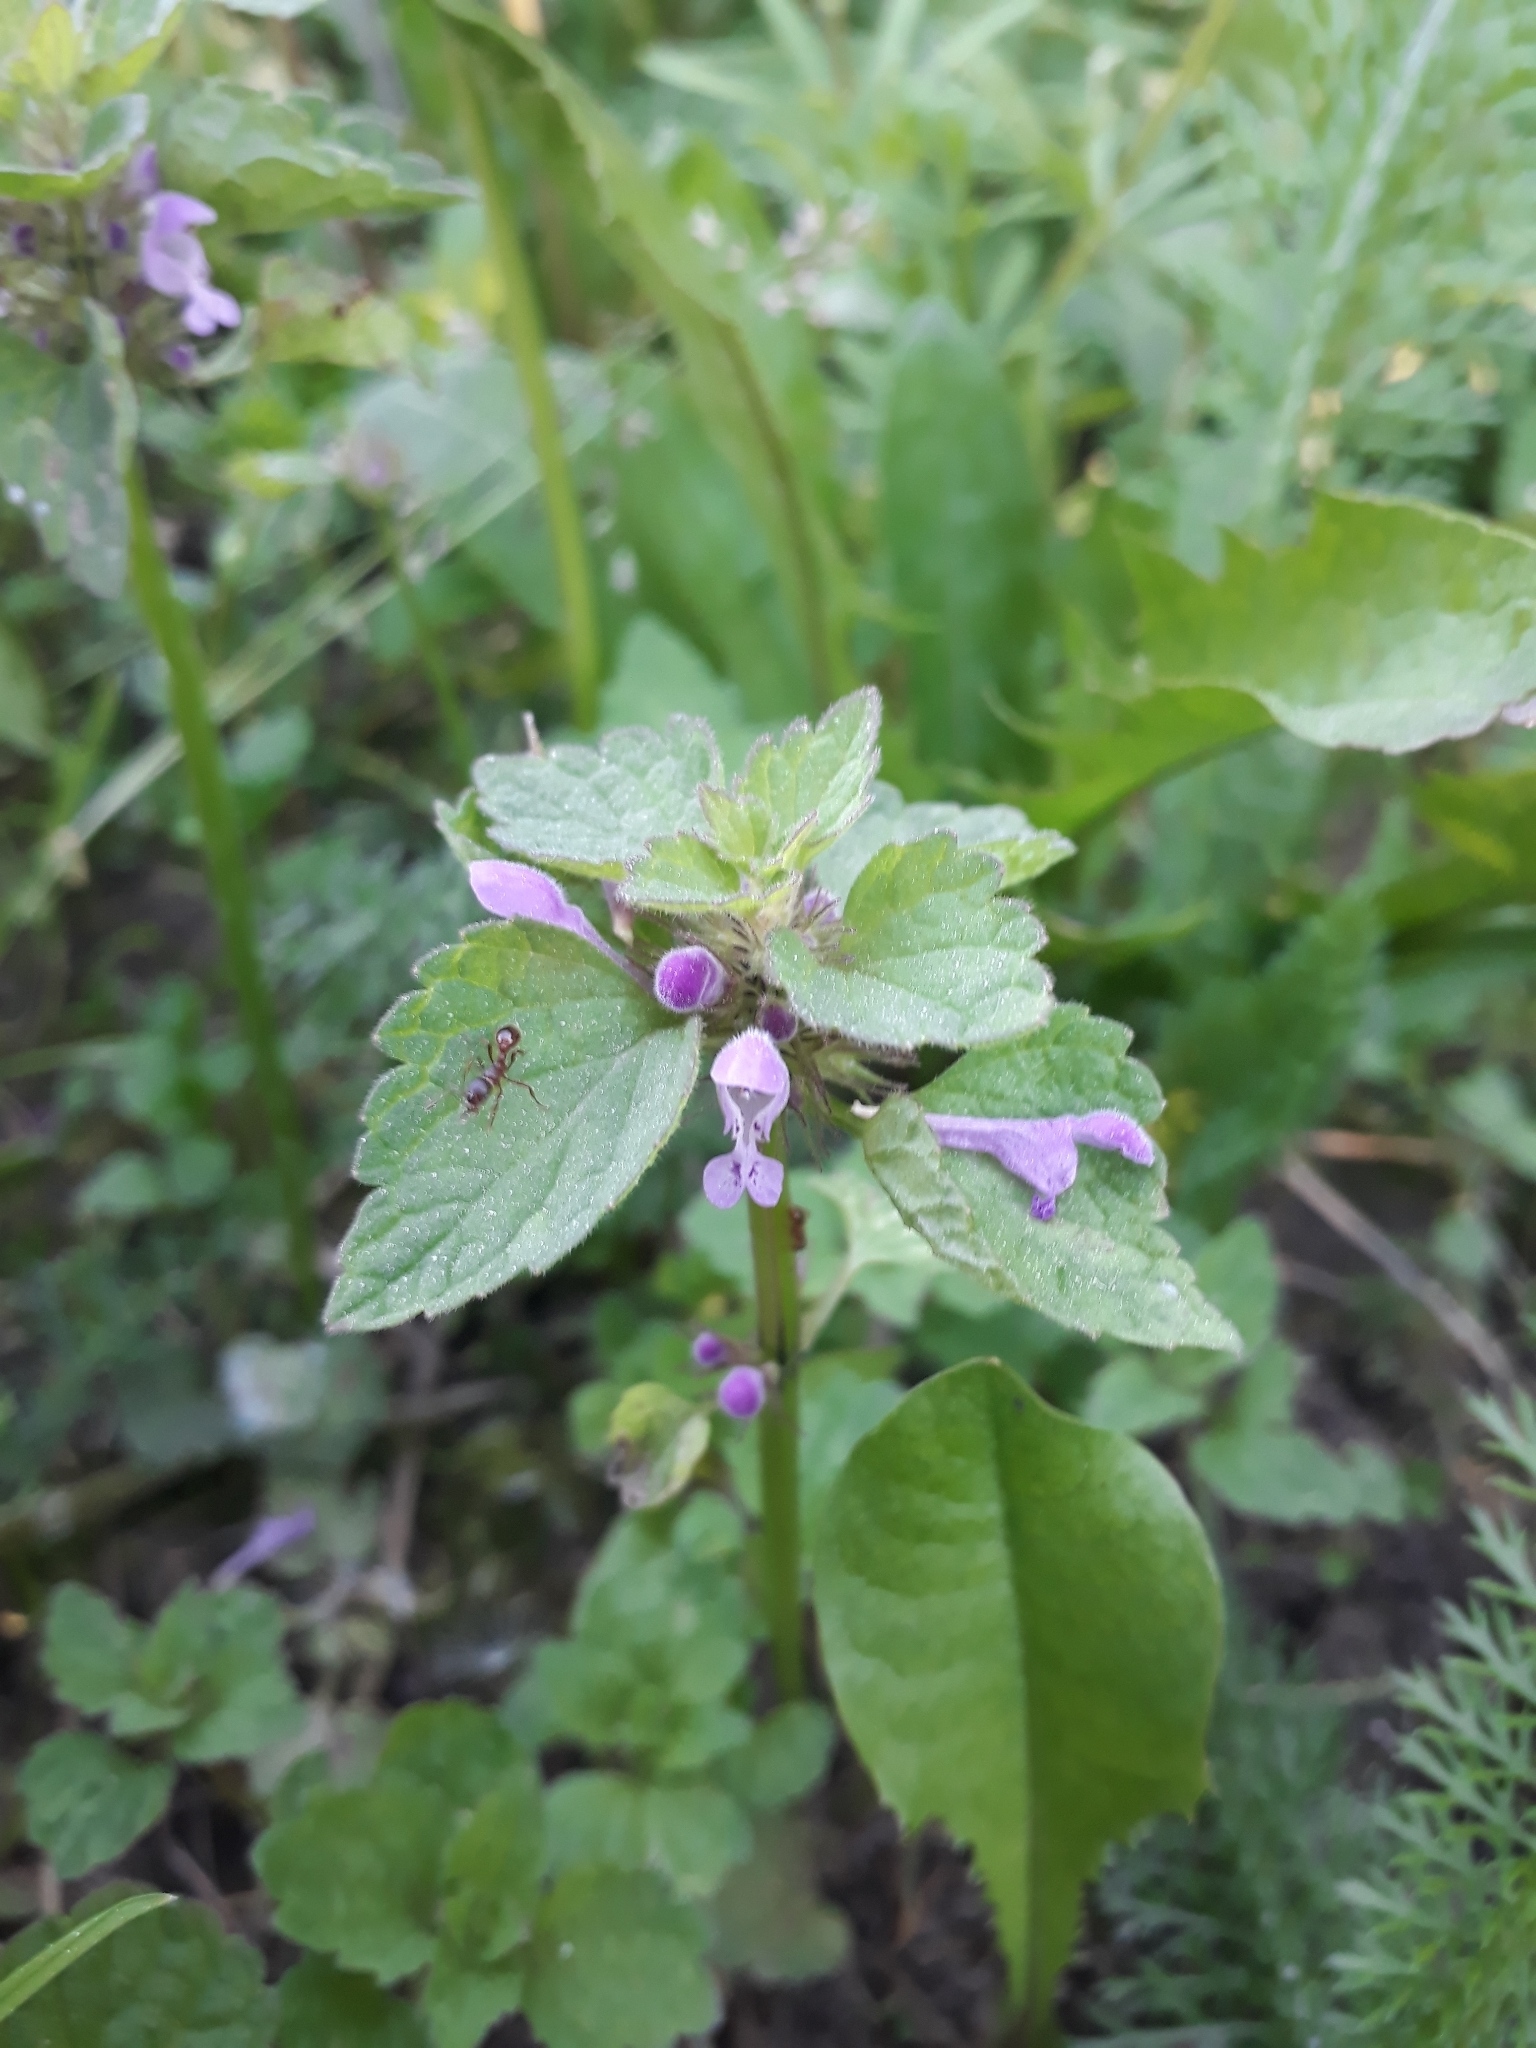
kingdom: Plantae
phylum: Tracheophyta
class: Magnoliopsida
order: Lamiales
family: Lamiaceae
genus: Lamium
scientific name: Lamium purpureum
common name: Red dead-nettle
